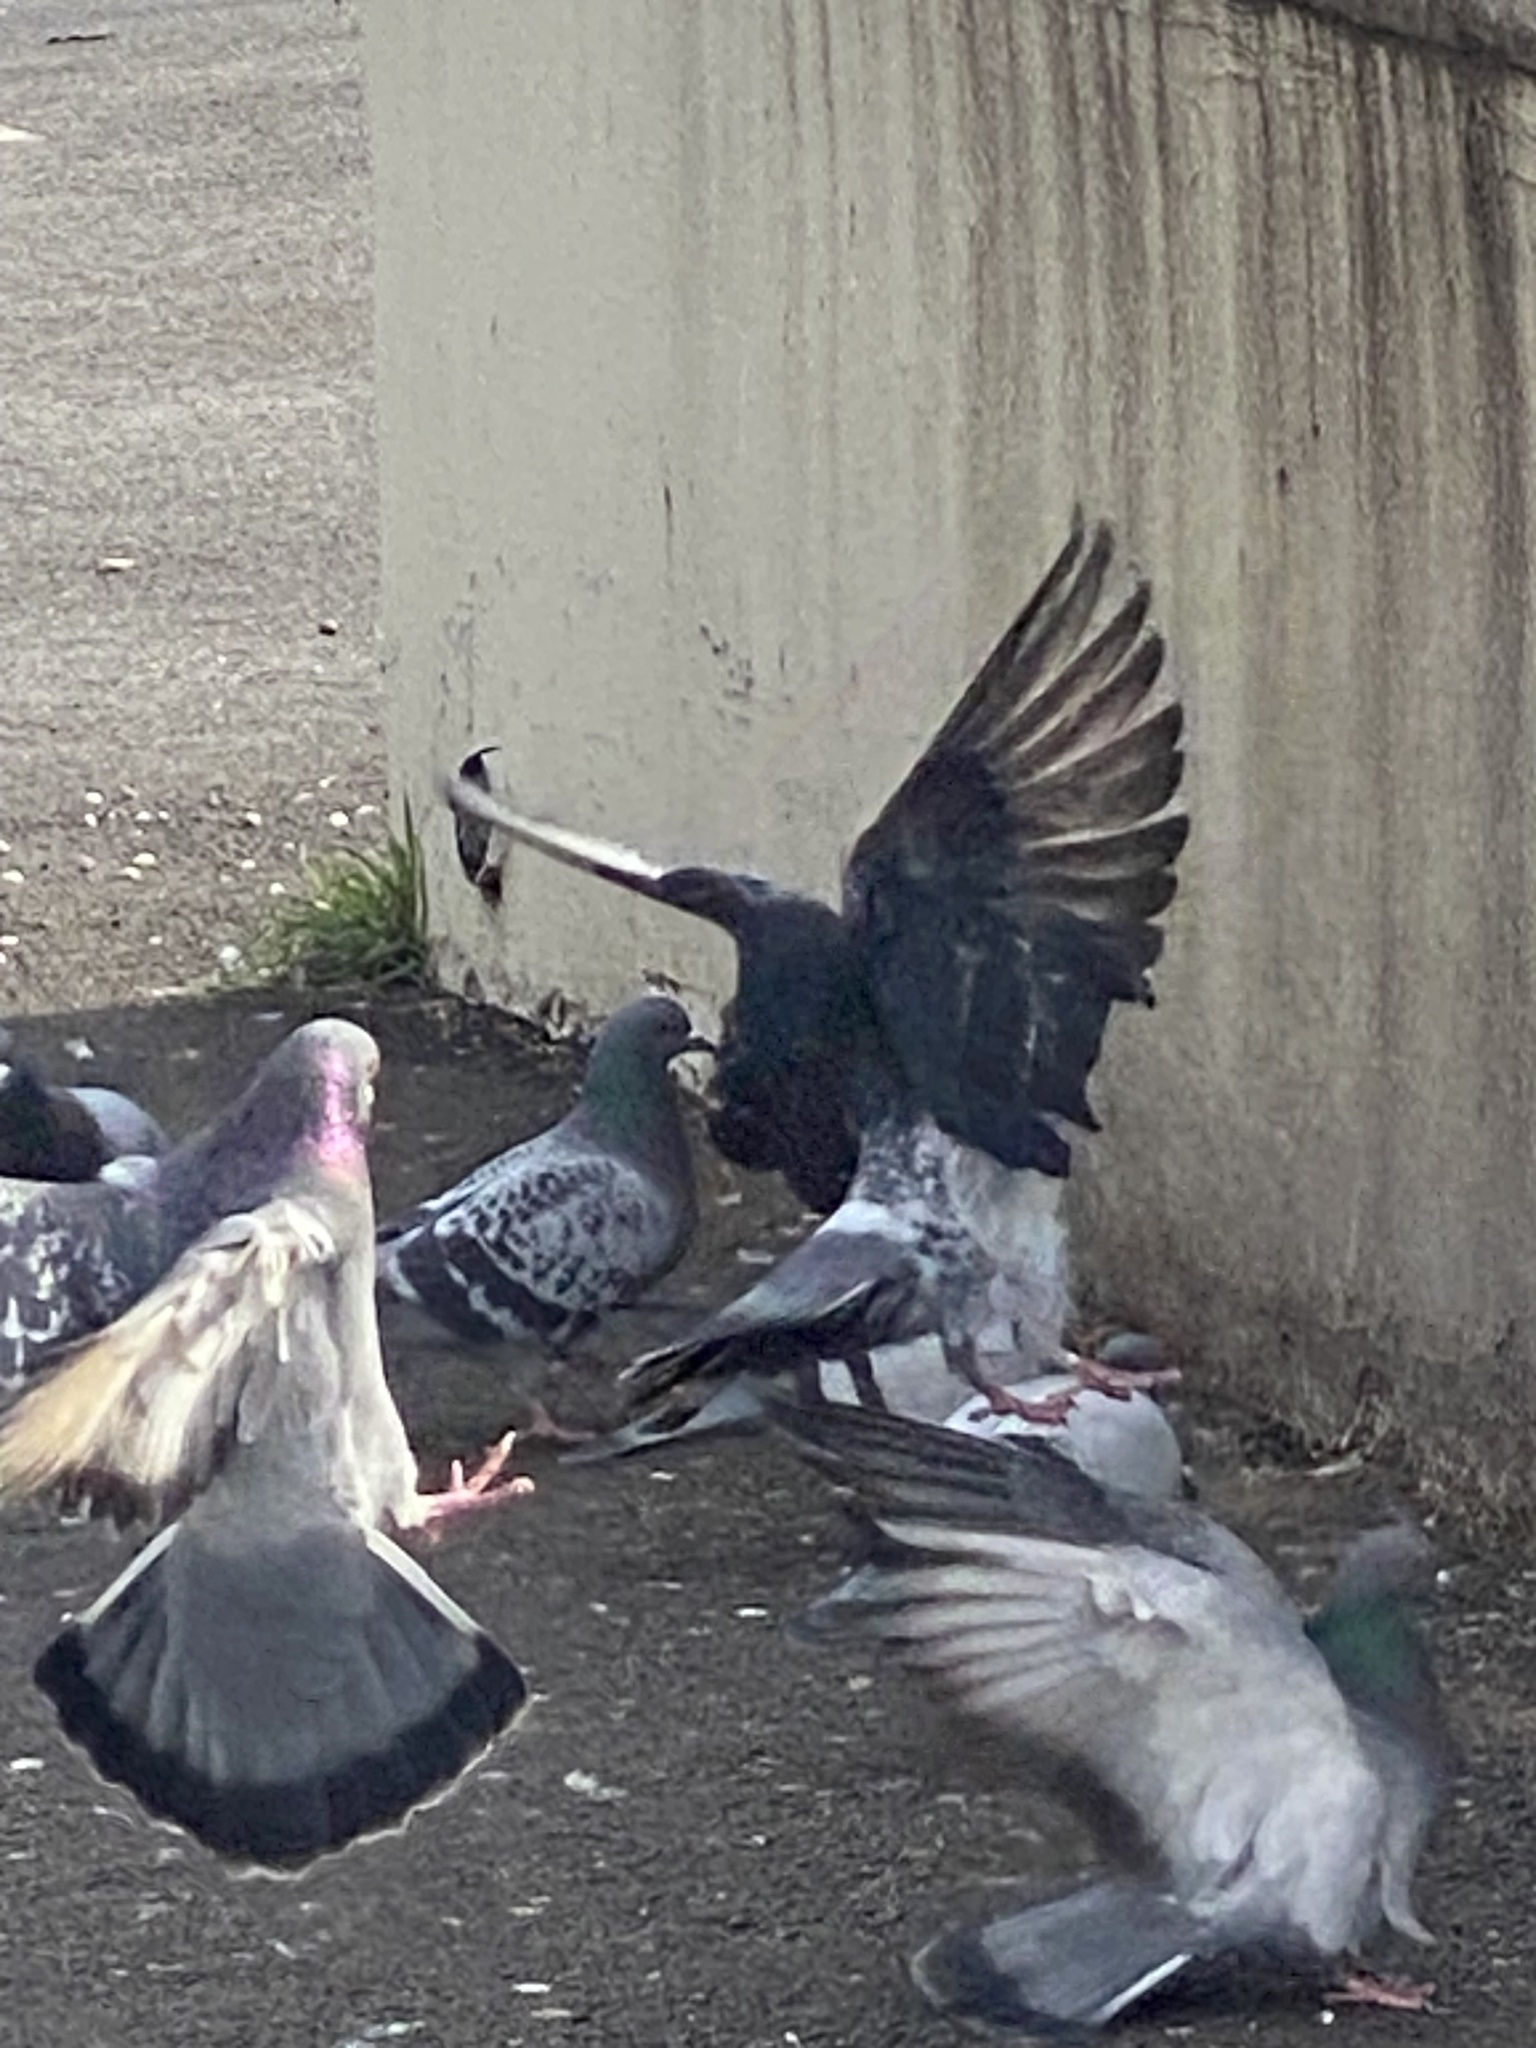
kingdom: Animalia
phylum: Chordata
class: Aves
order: Columbiformes
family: Columbidae
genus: Columba
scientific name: Columba livia
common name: Rock pigeon
